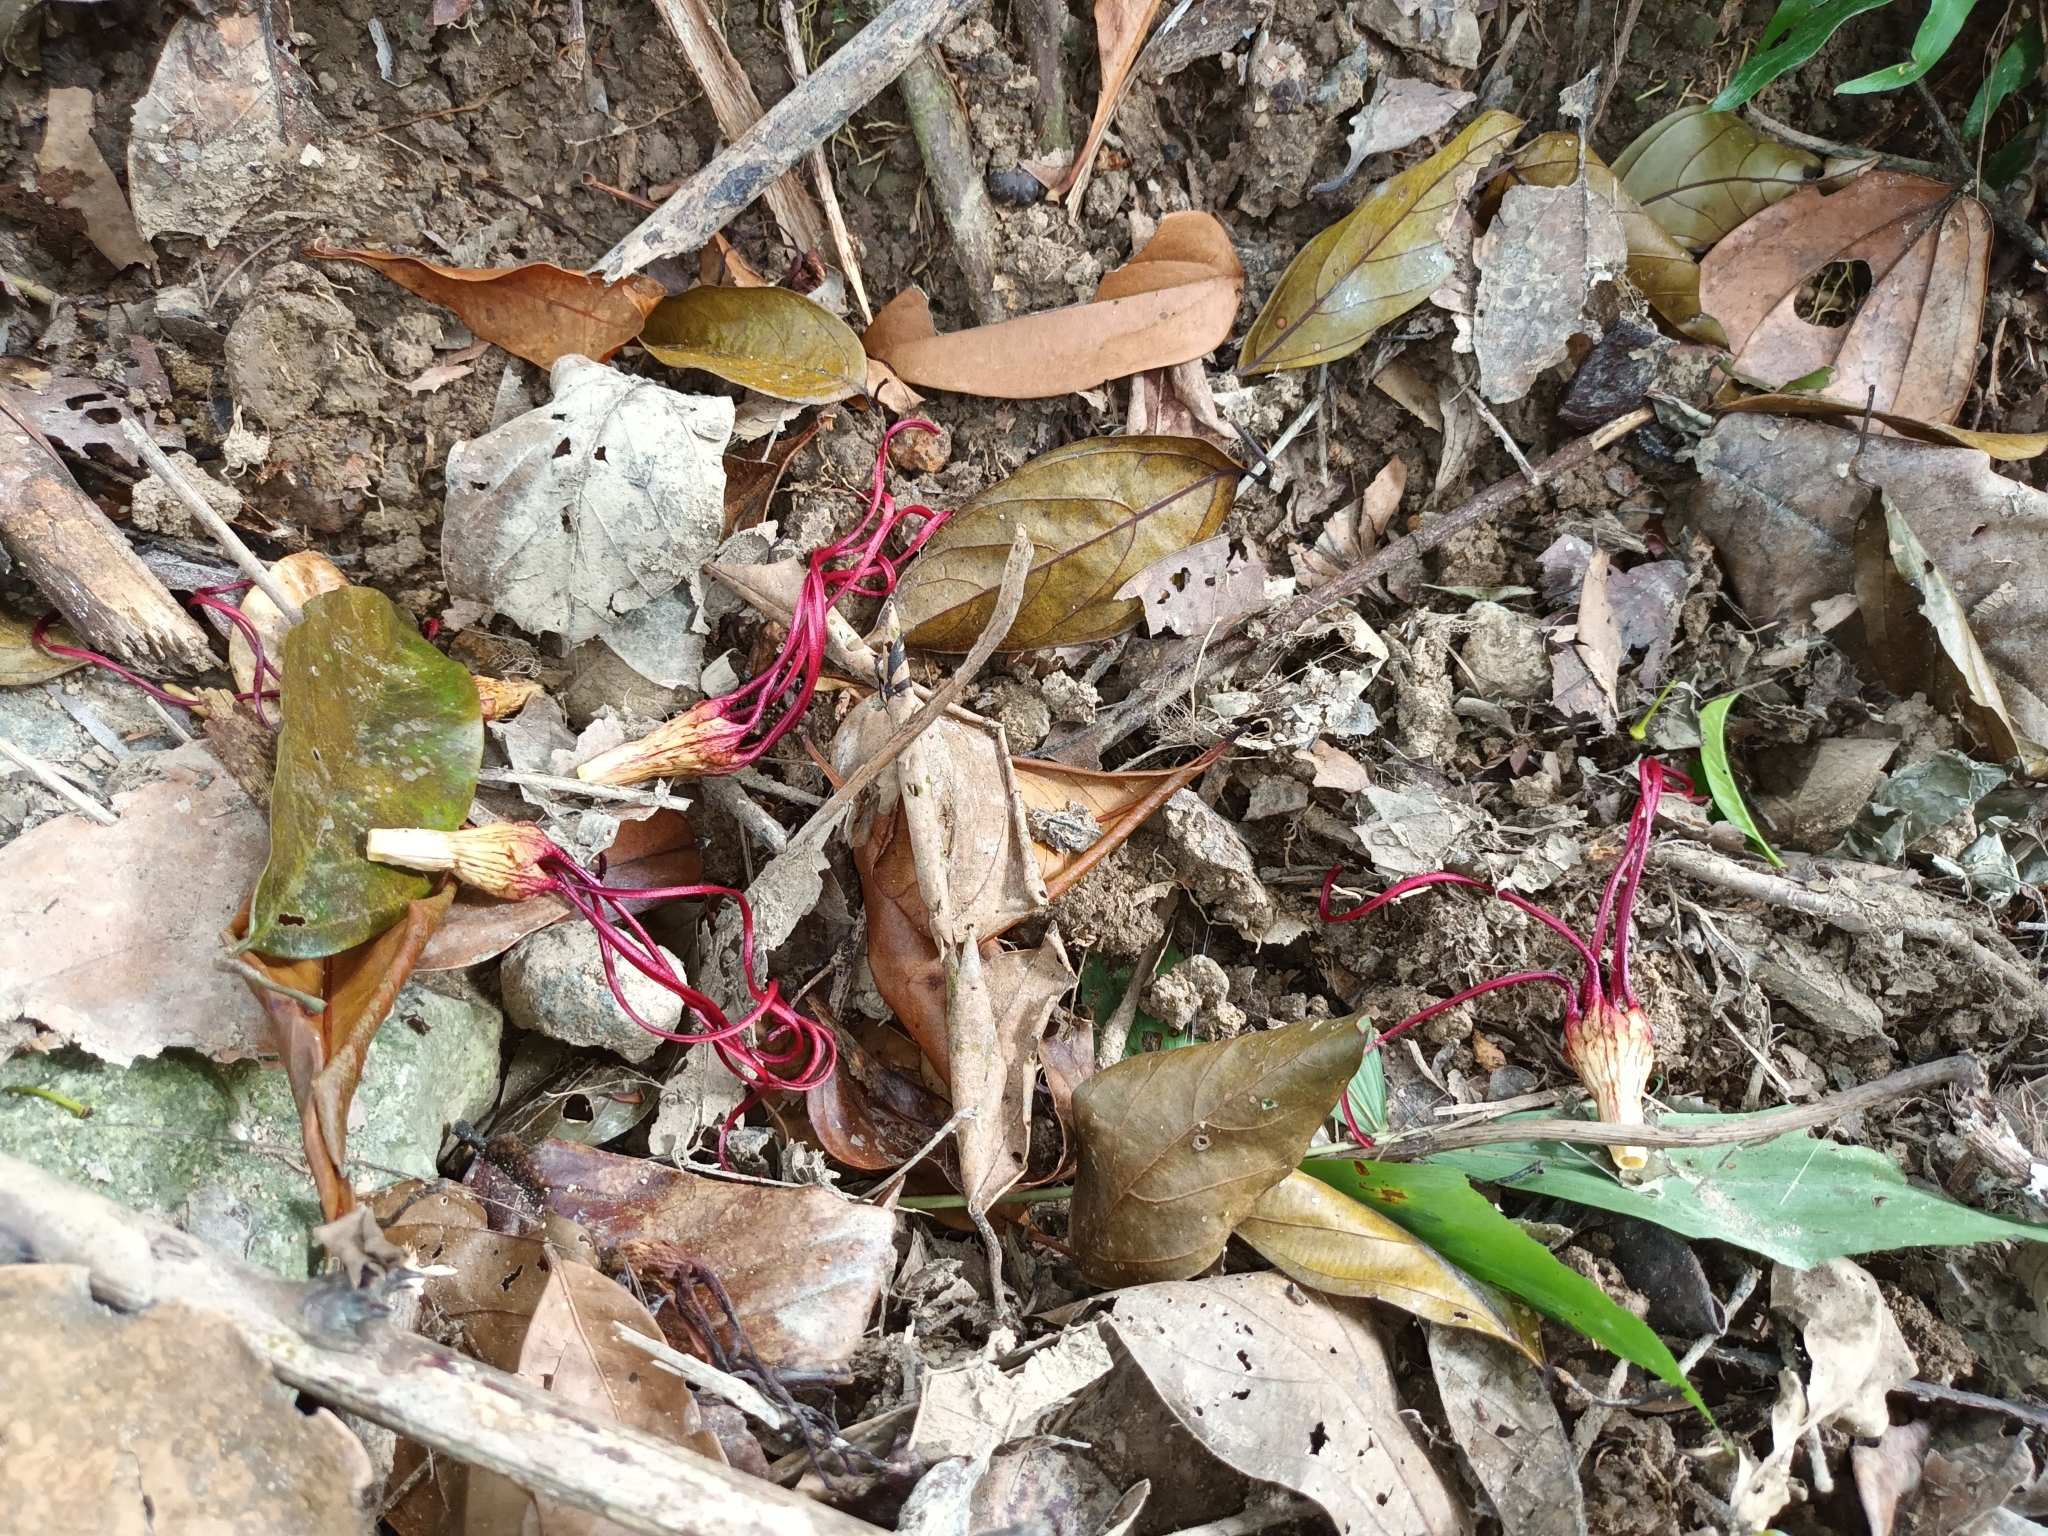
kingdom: Plantae
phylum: Tracheophyta
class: Magnoliopsida
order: Gentianales
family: Apocynaceae
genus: Strophanthus
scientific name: Strophanthus caudatus
